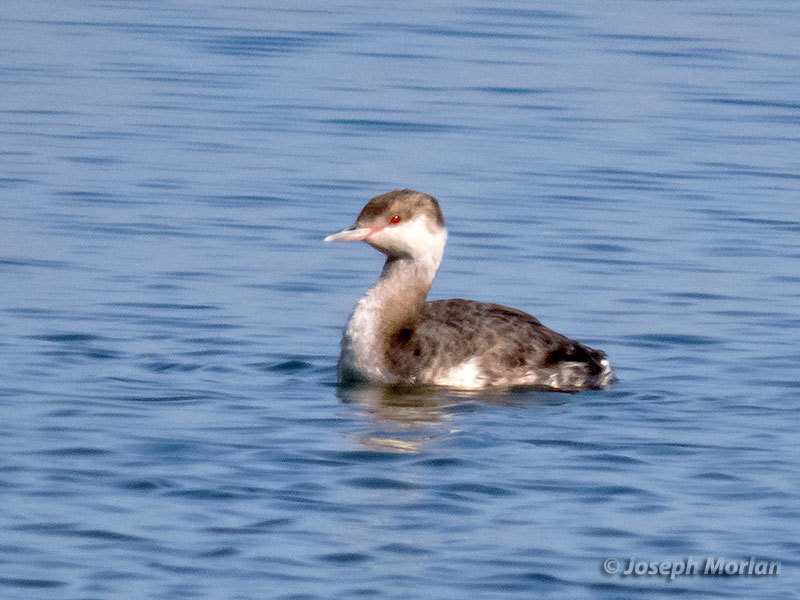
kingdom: Animalia
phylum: Chordata
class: Aves
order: Podicipediformes
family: Podicipedidae
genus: Podiceps
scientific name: Podiceps auritus
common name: Horned grebe
